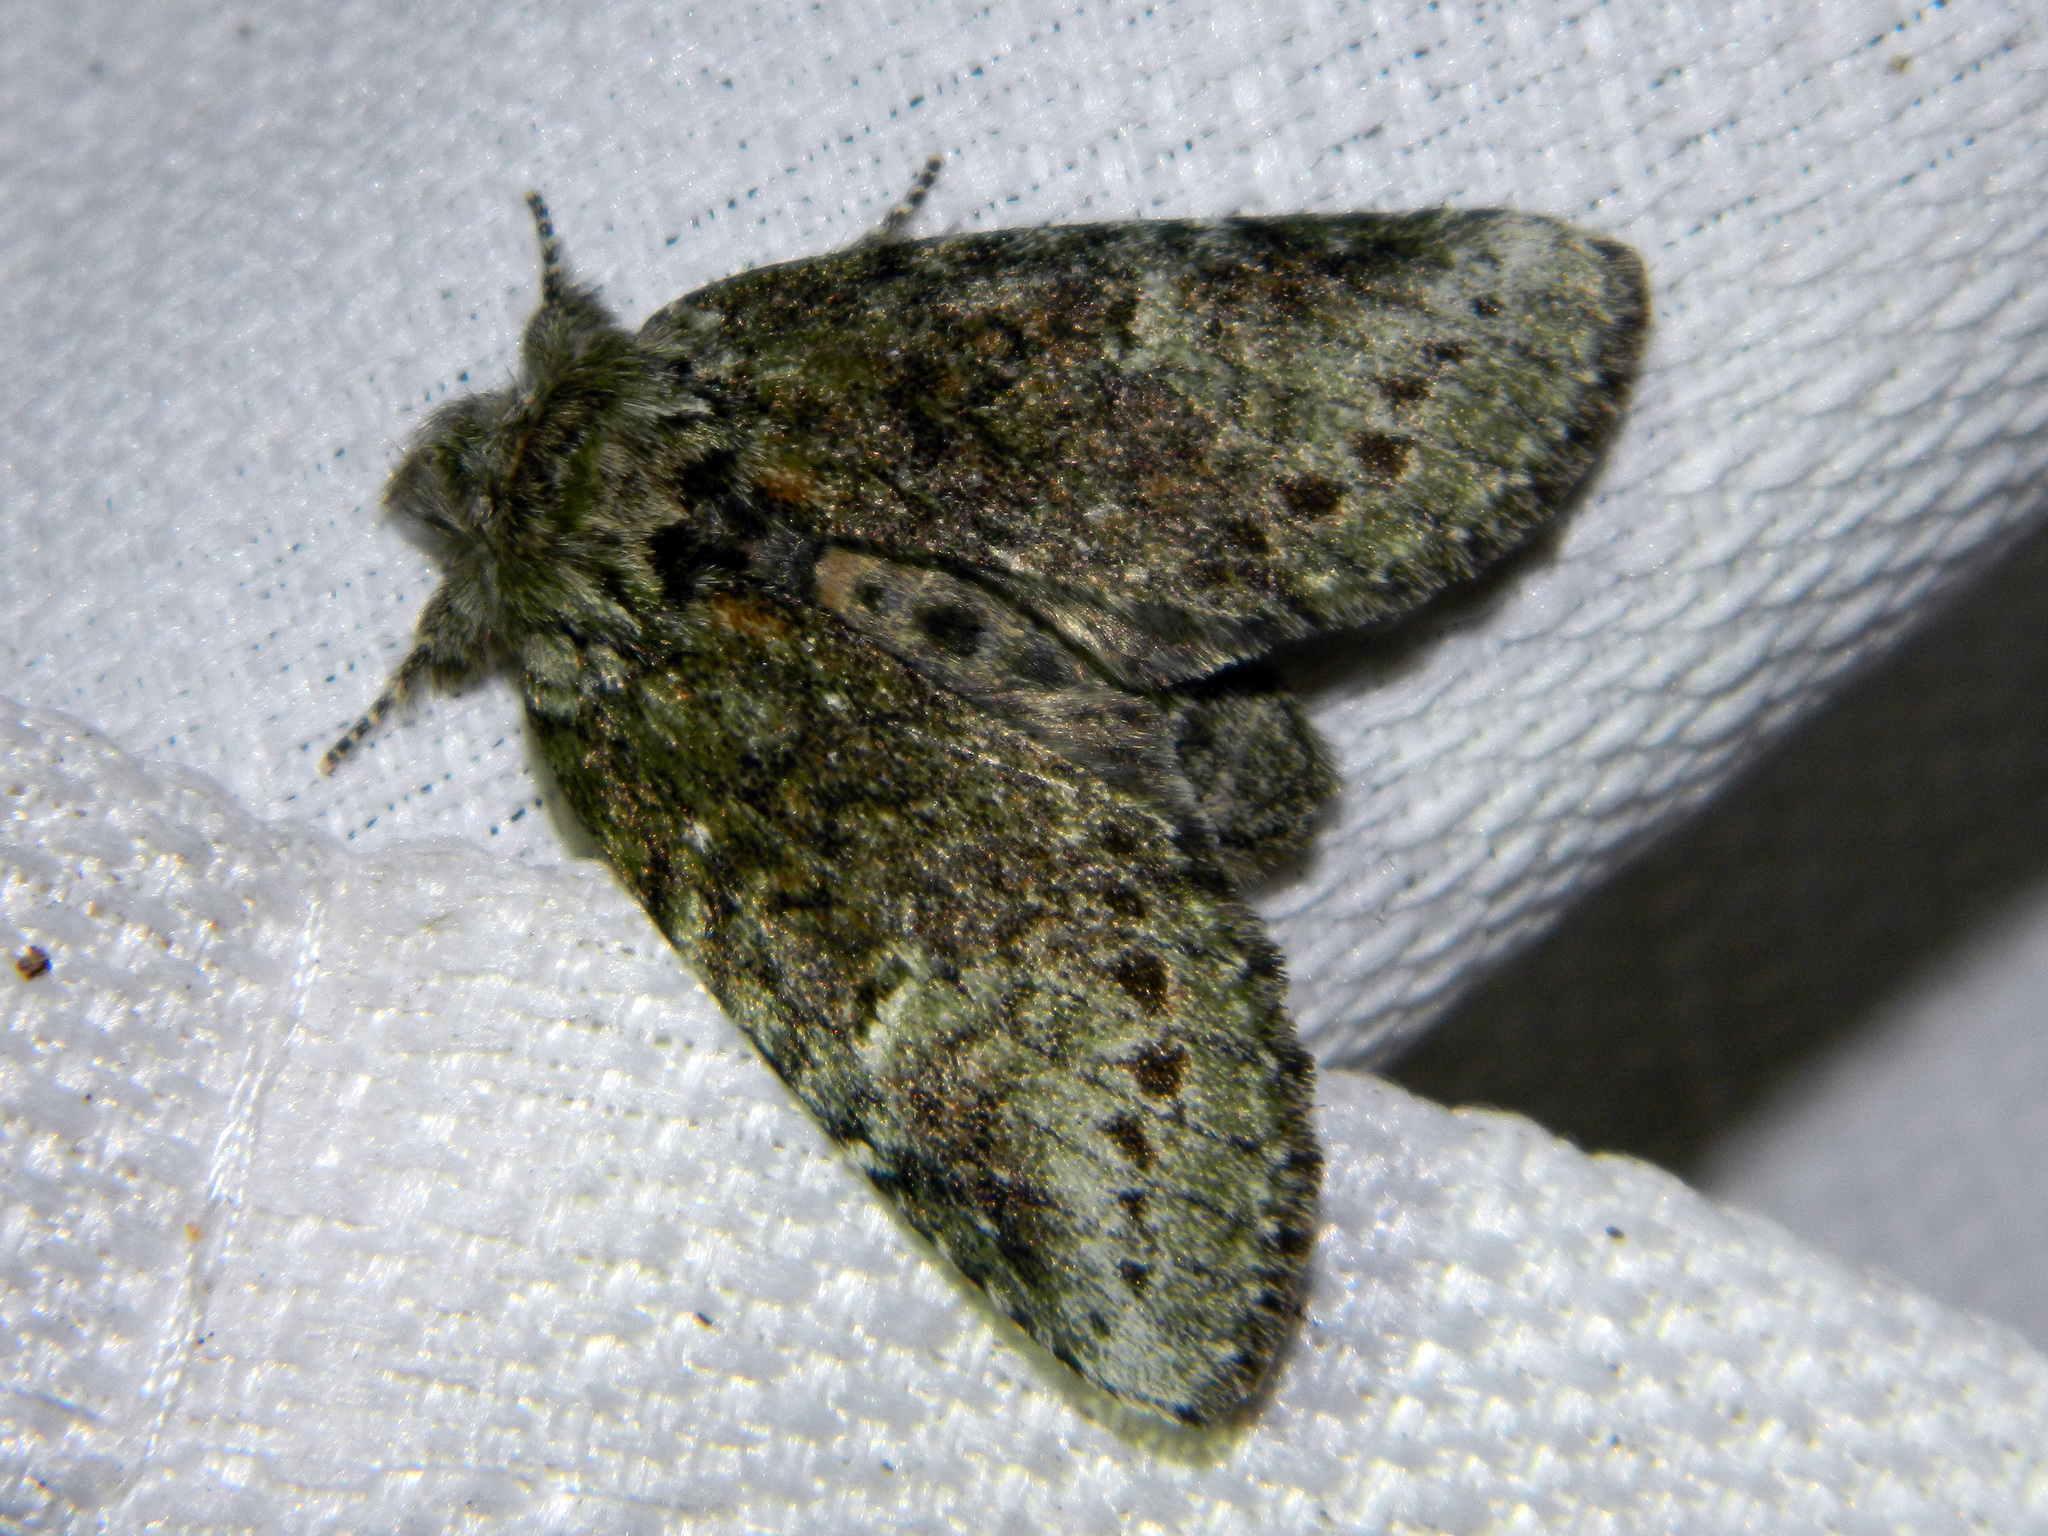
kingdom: Animalia
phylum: Arthropoda
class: Insecta
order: Lepidoptera
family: Notodontidae
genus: Disphragis
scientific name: Disphragis Cecrita guttivitta
